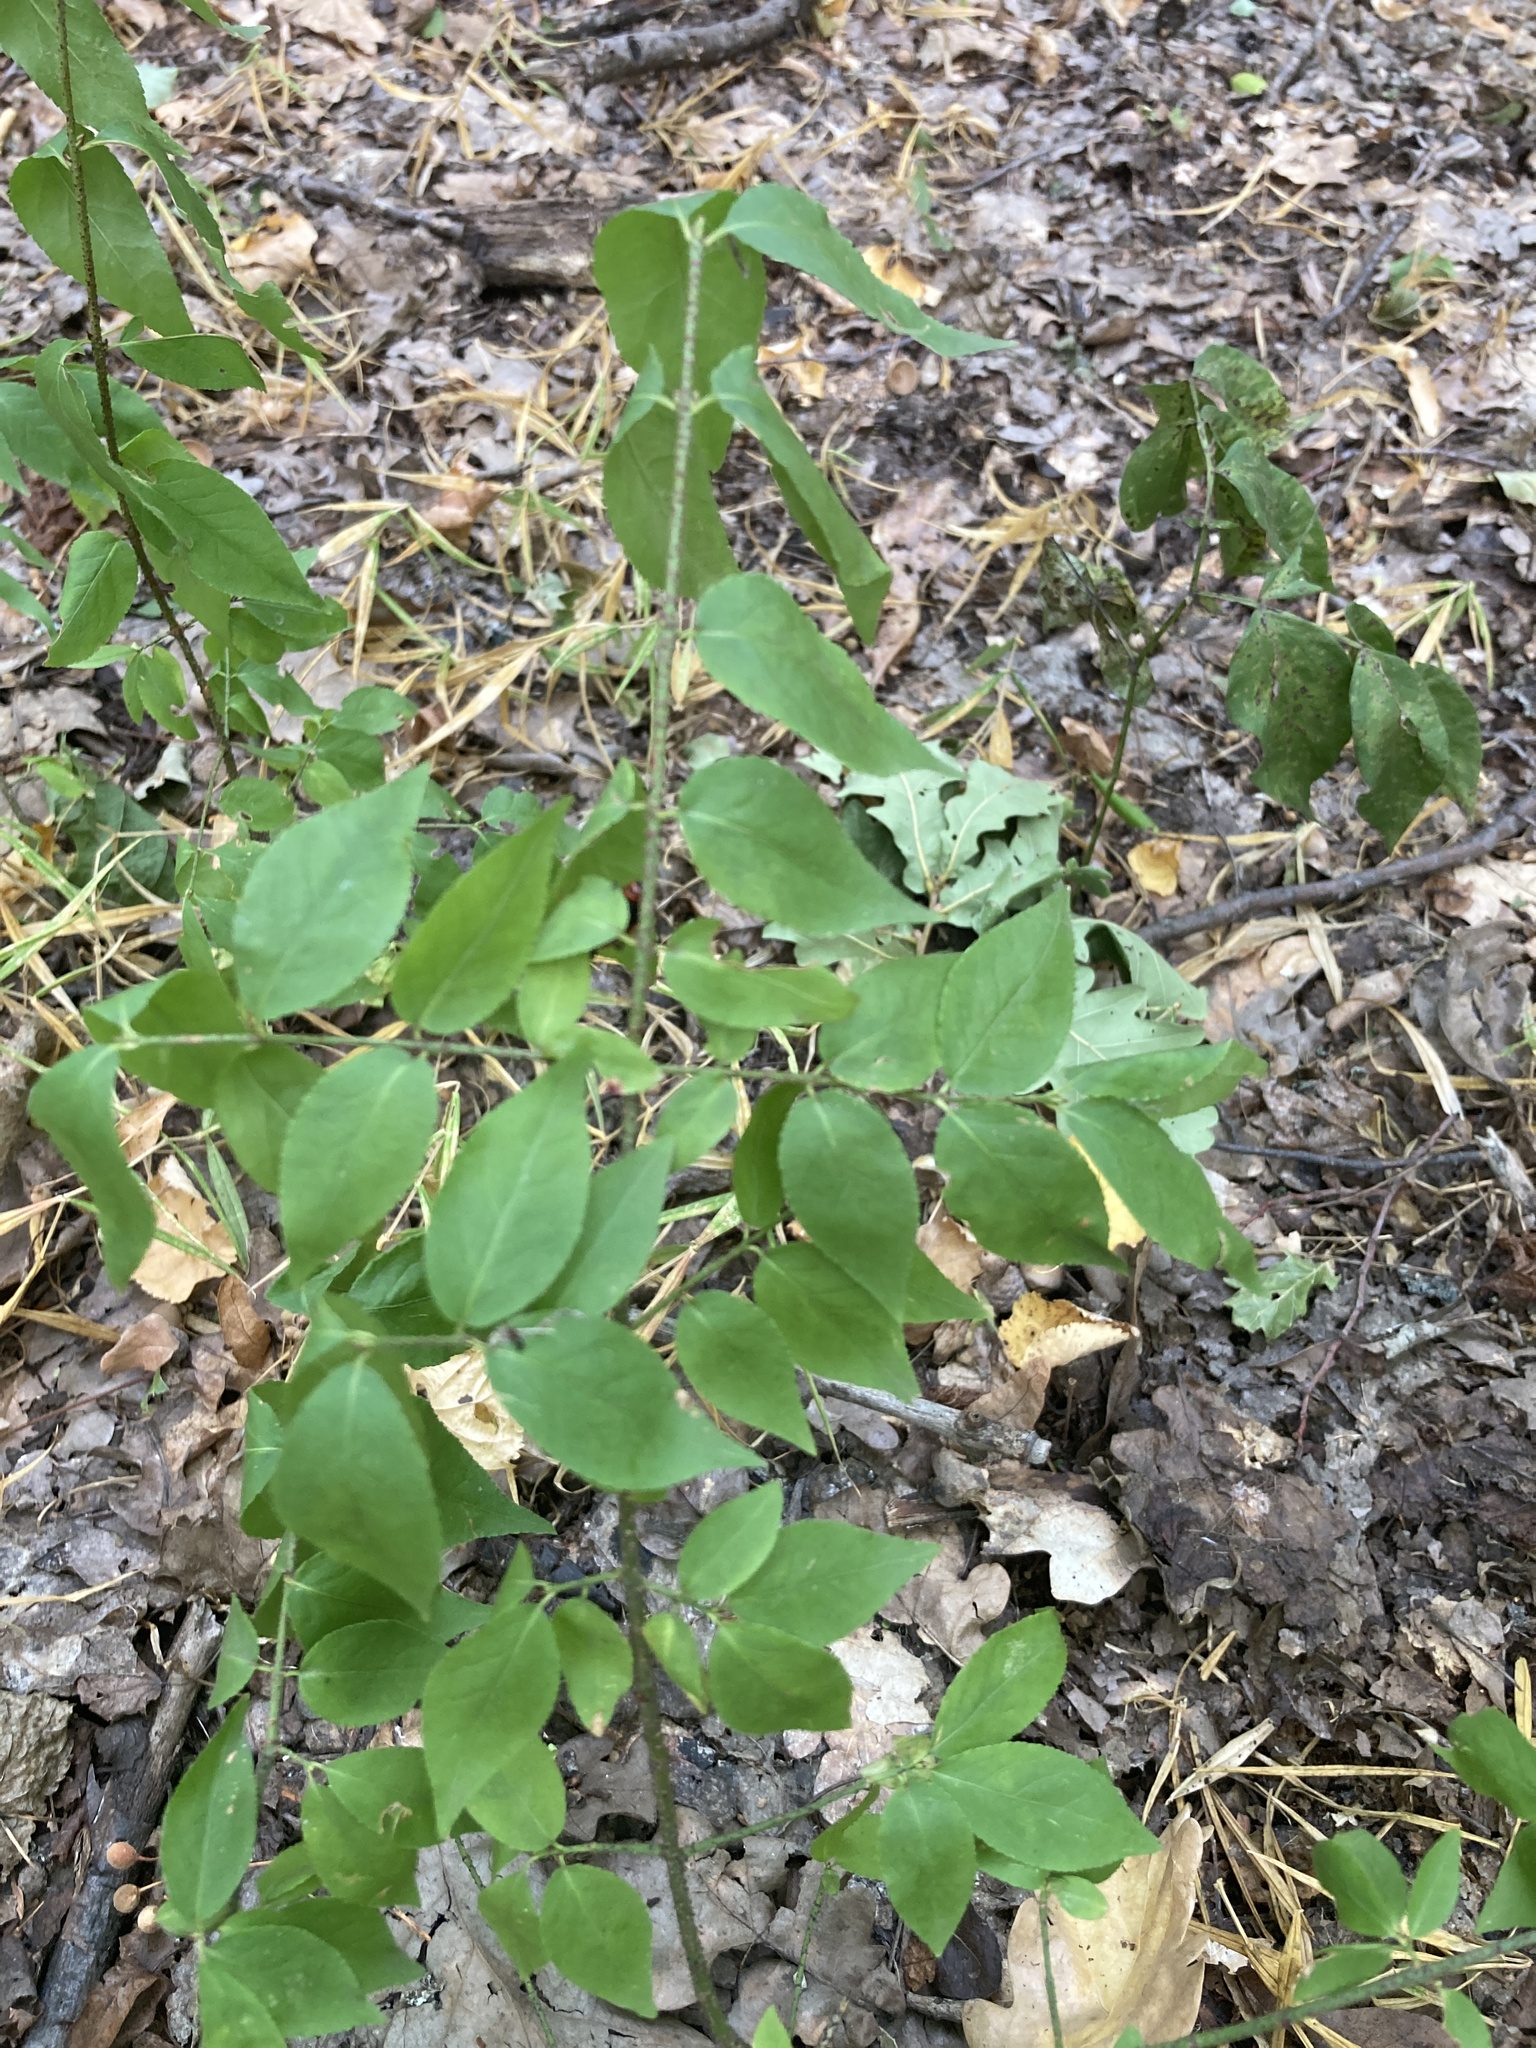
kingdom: Plantae
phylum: Tracheophyta
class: Magnoliopsida
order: Celastrales
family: Celastraceae
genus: Euonymus
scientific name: Euonymus verrucosus
